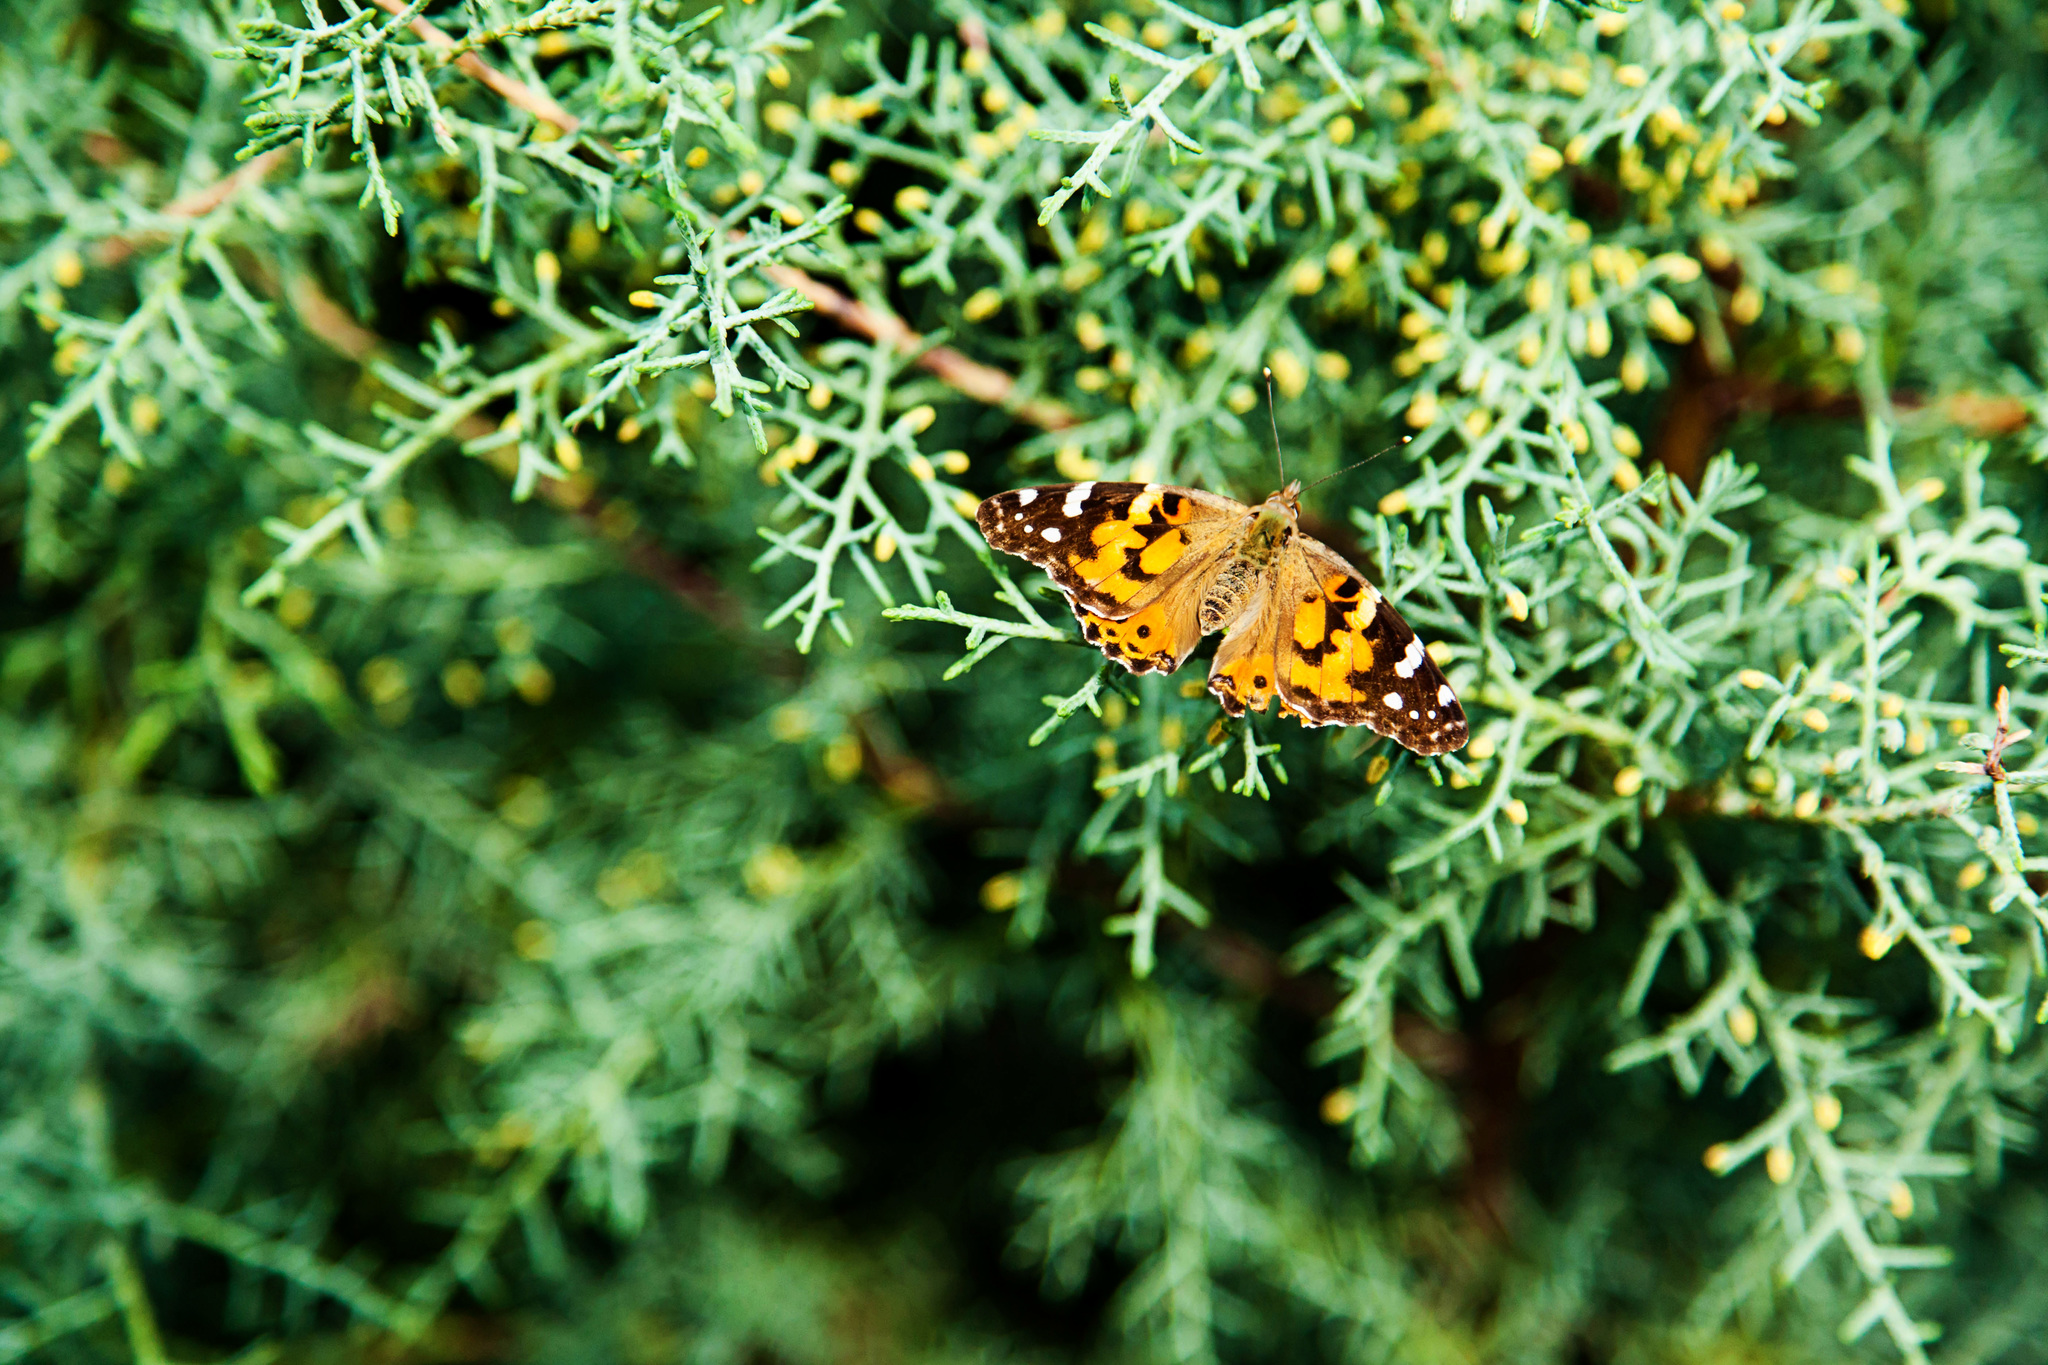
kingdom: Animalia
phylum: Arthropoda
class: Insecta
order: Lepidoptera
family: Nymphalidae
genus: Vanessa
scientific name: Vanessa cardui
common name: Painted lady
